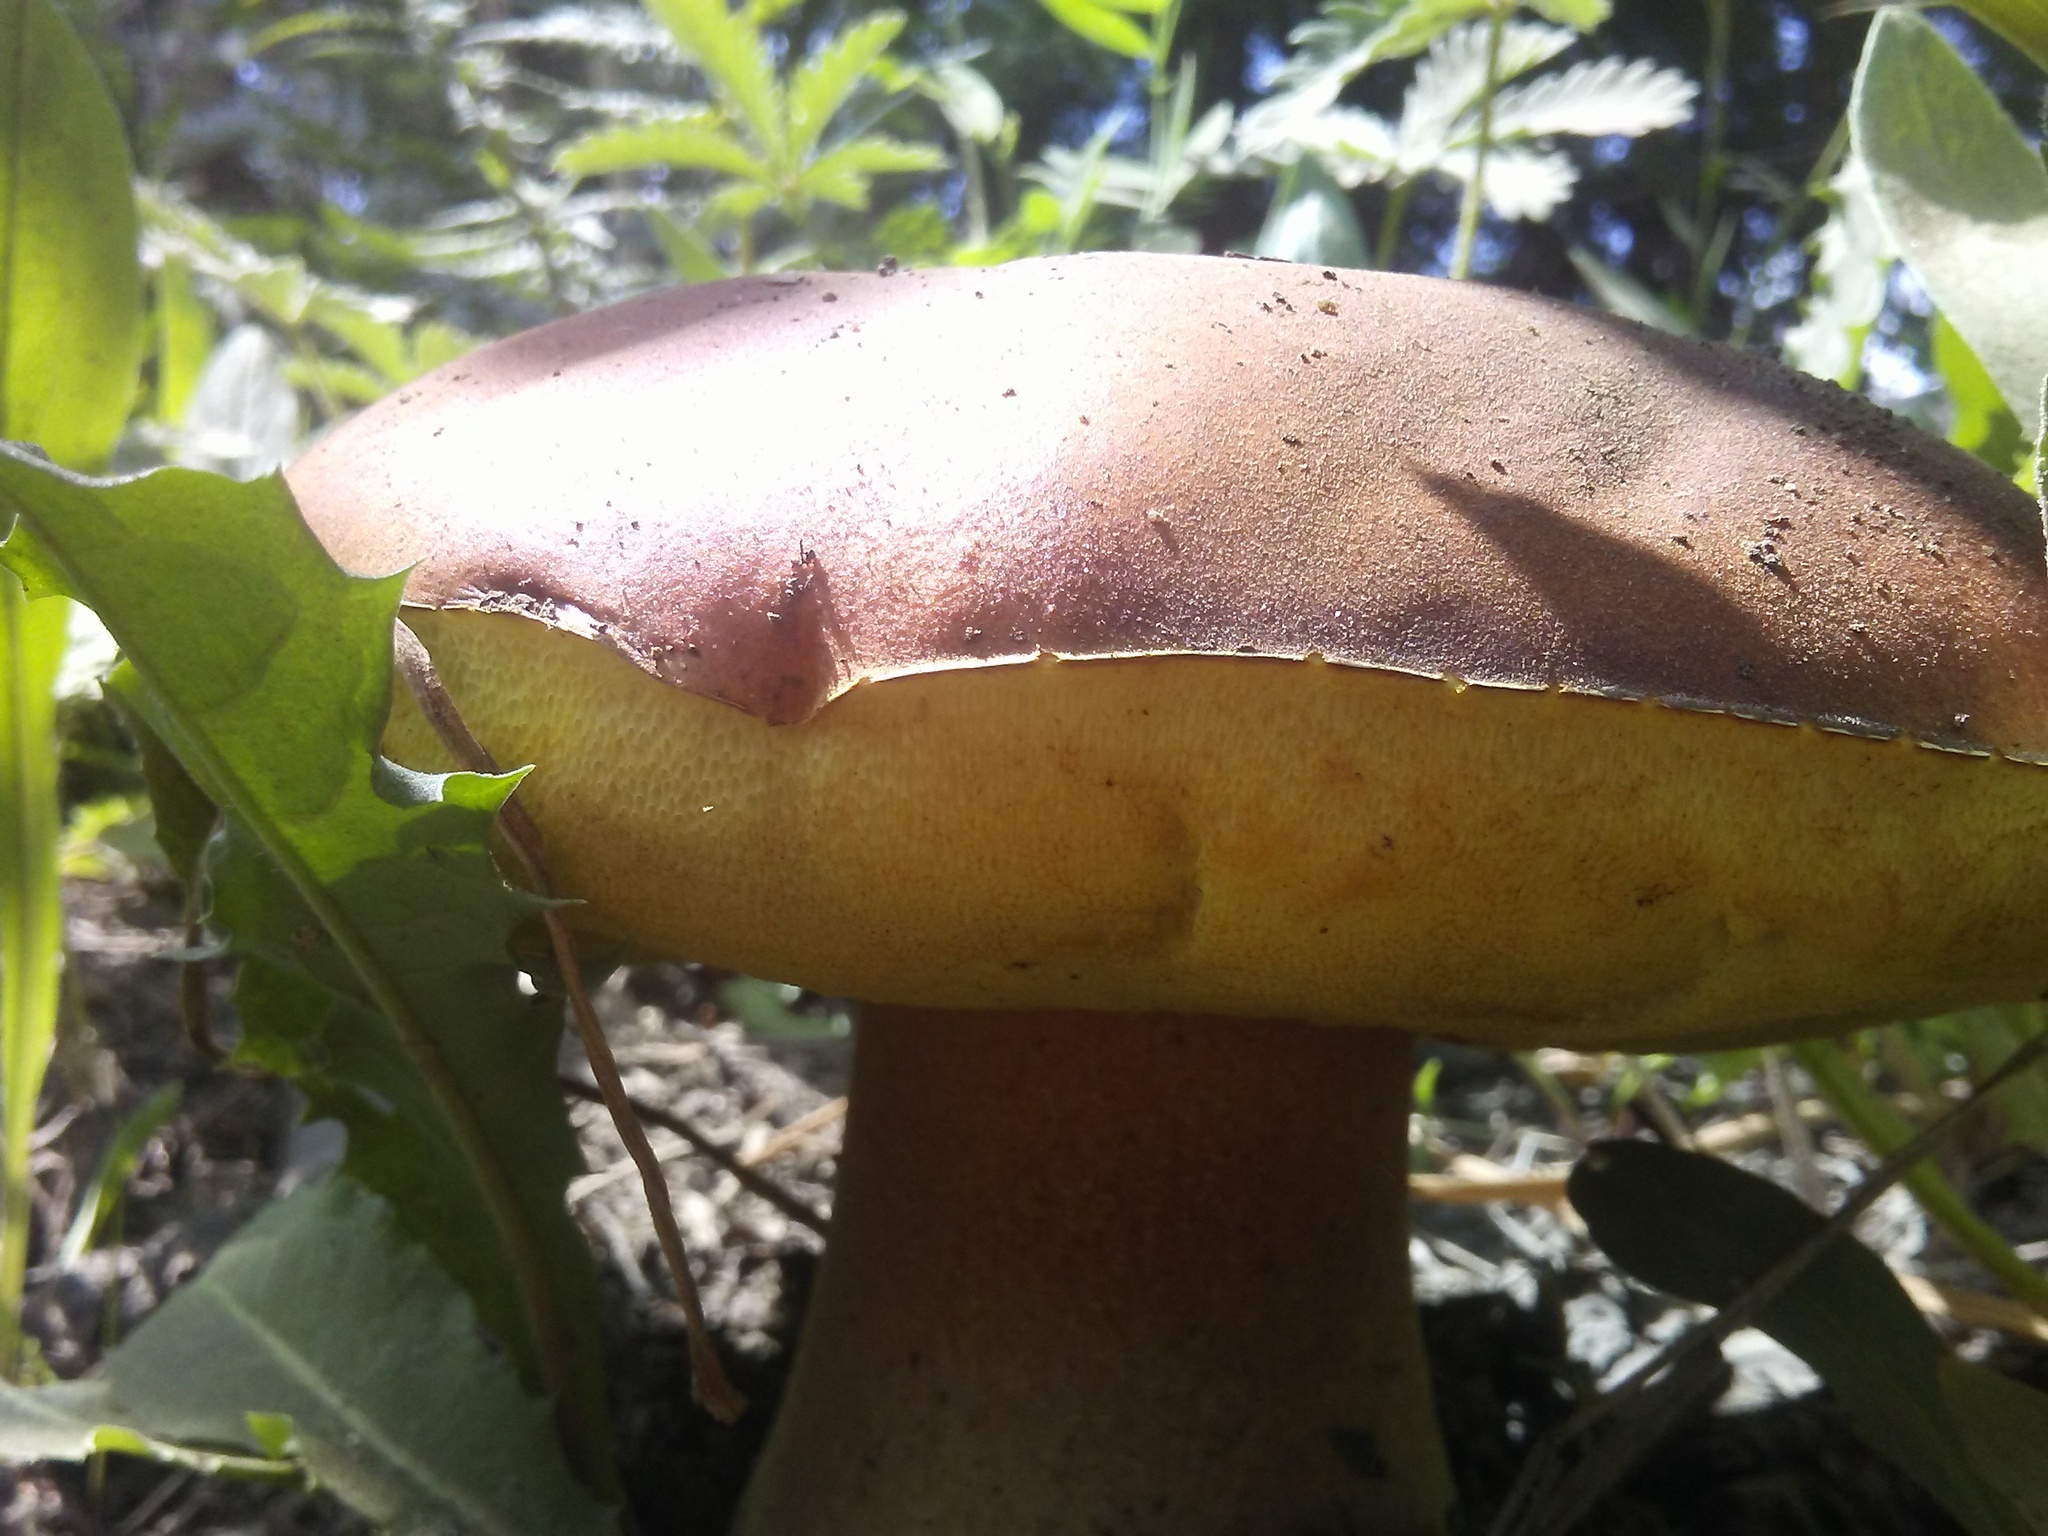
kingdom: Fungi
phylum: Basidiomycota
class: Agaricomycetes
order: Boletales
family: Boletaceae
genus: Boletus
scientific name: Boletus rubriceps
